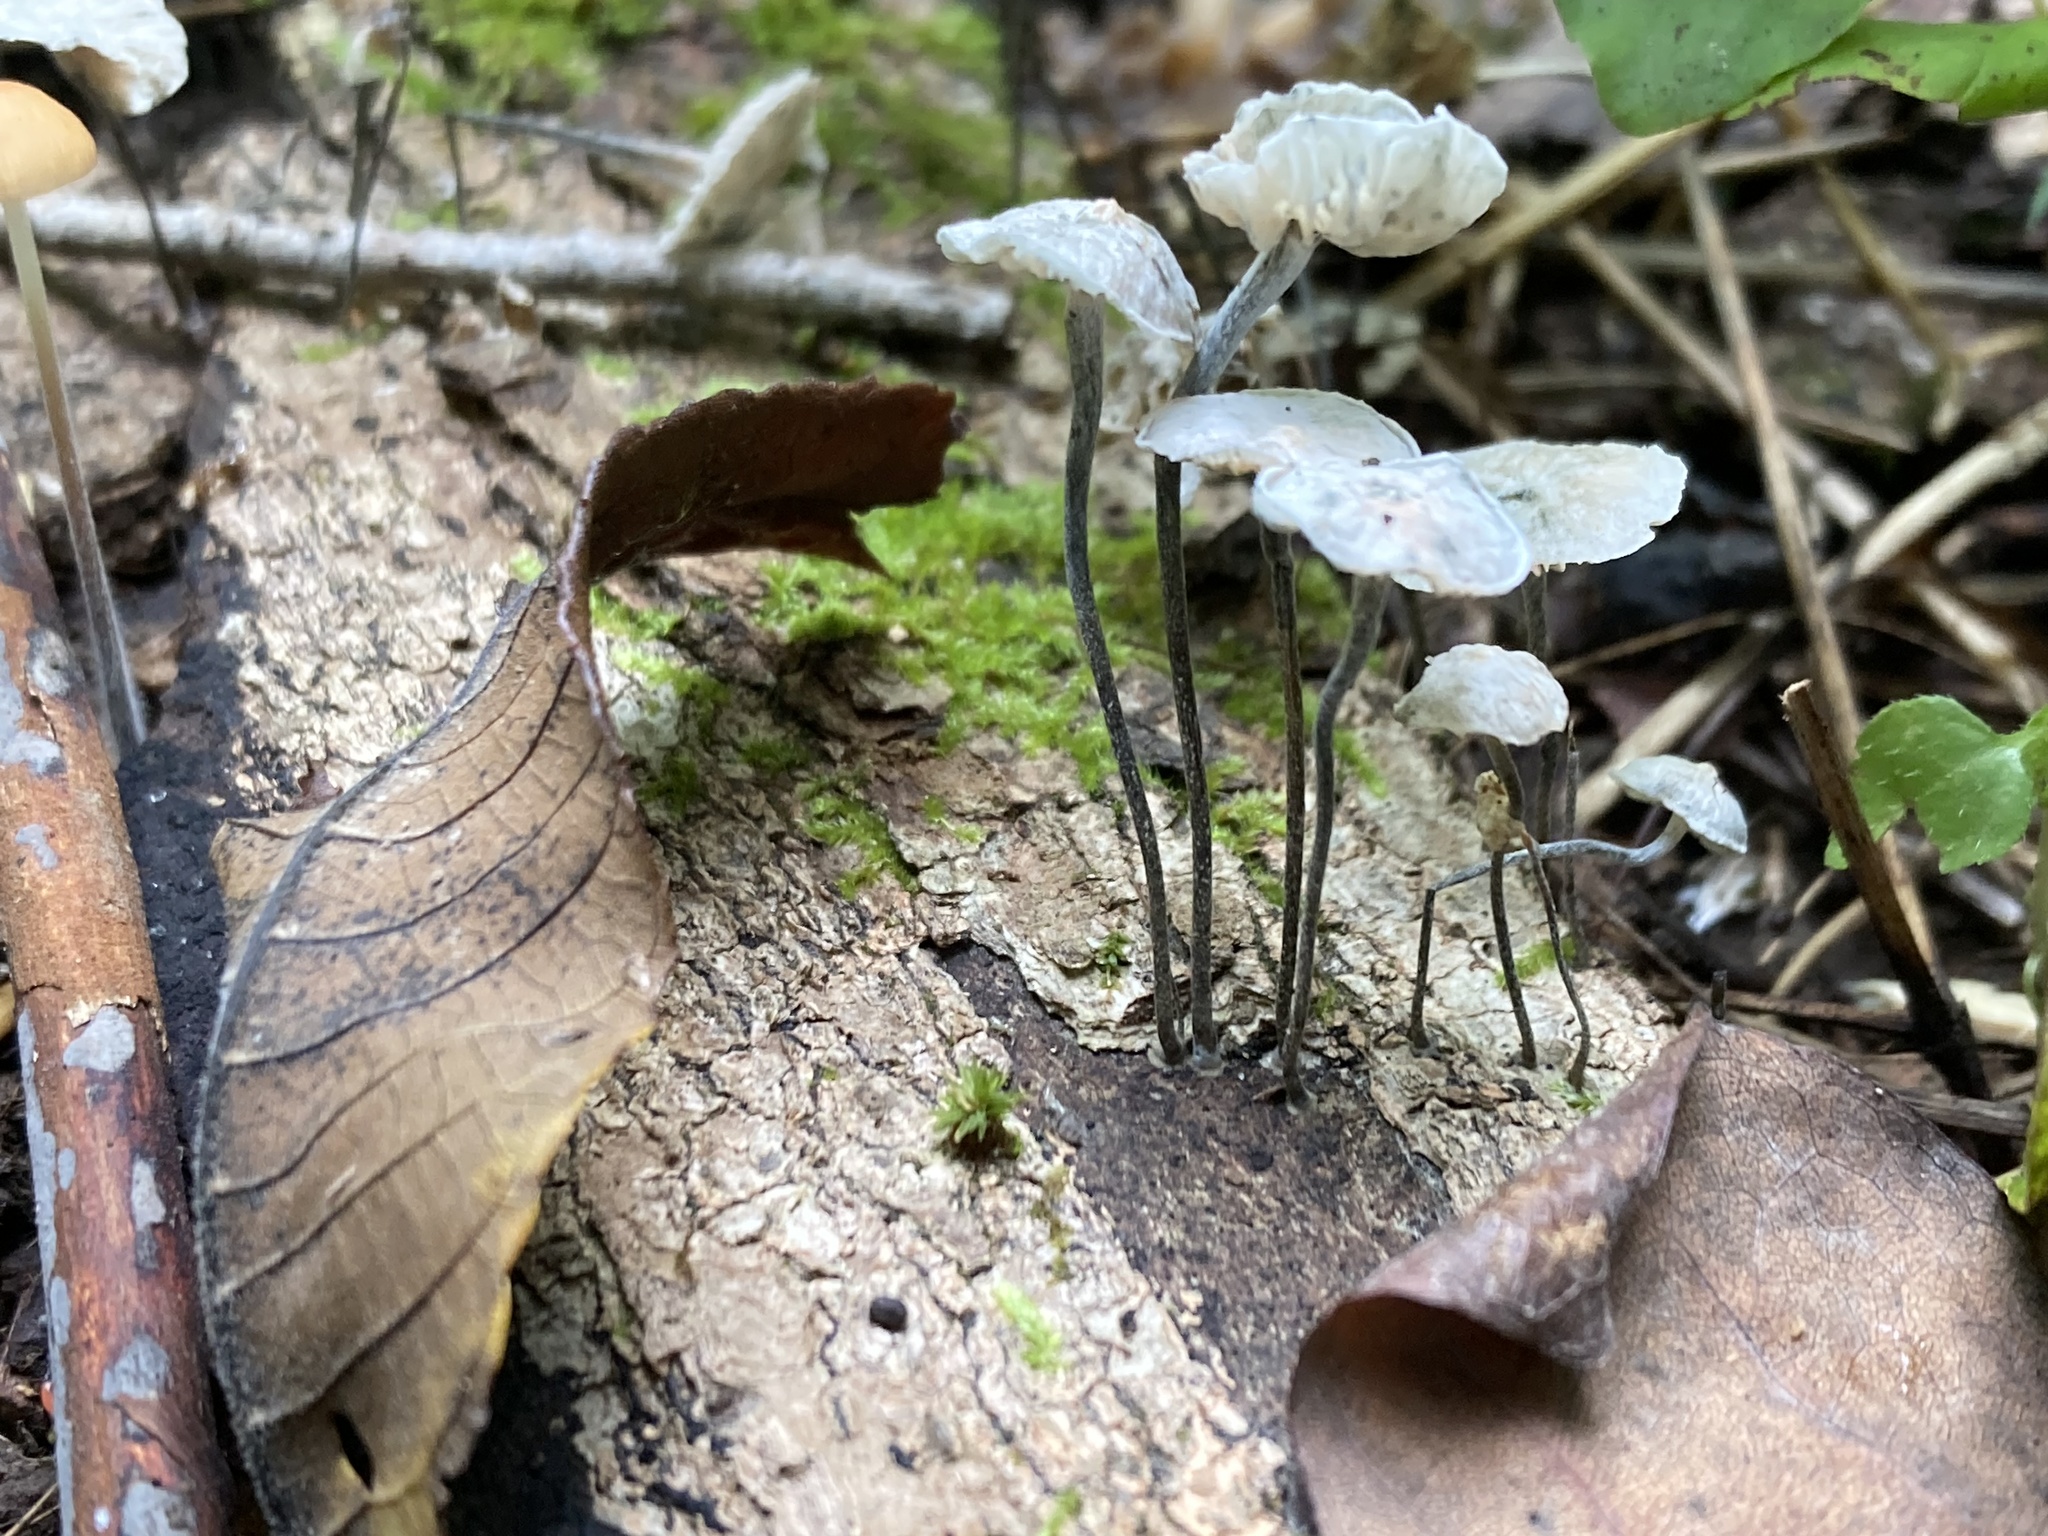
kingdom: Fungi
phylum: Basidiomycota
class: Agaricomycetes
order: Agaricales
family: Marasmiaceae
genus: Tetrapyrgos
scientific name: Tetrapyrgos nigripes
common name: Black-stalked marasmius
